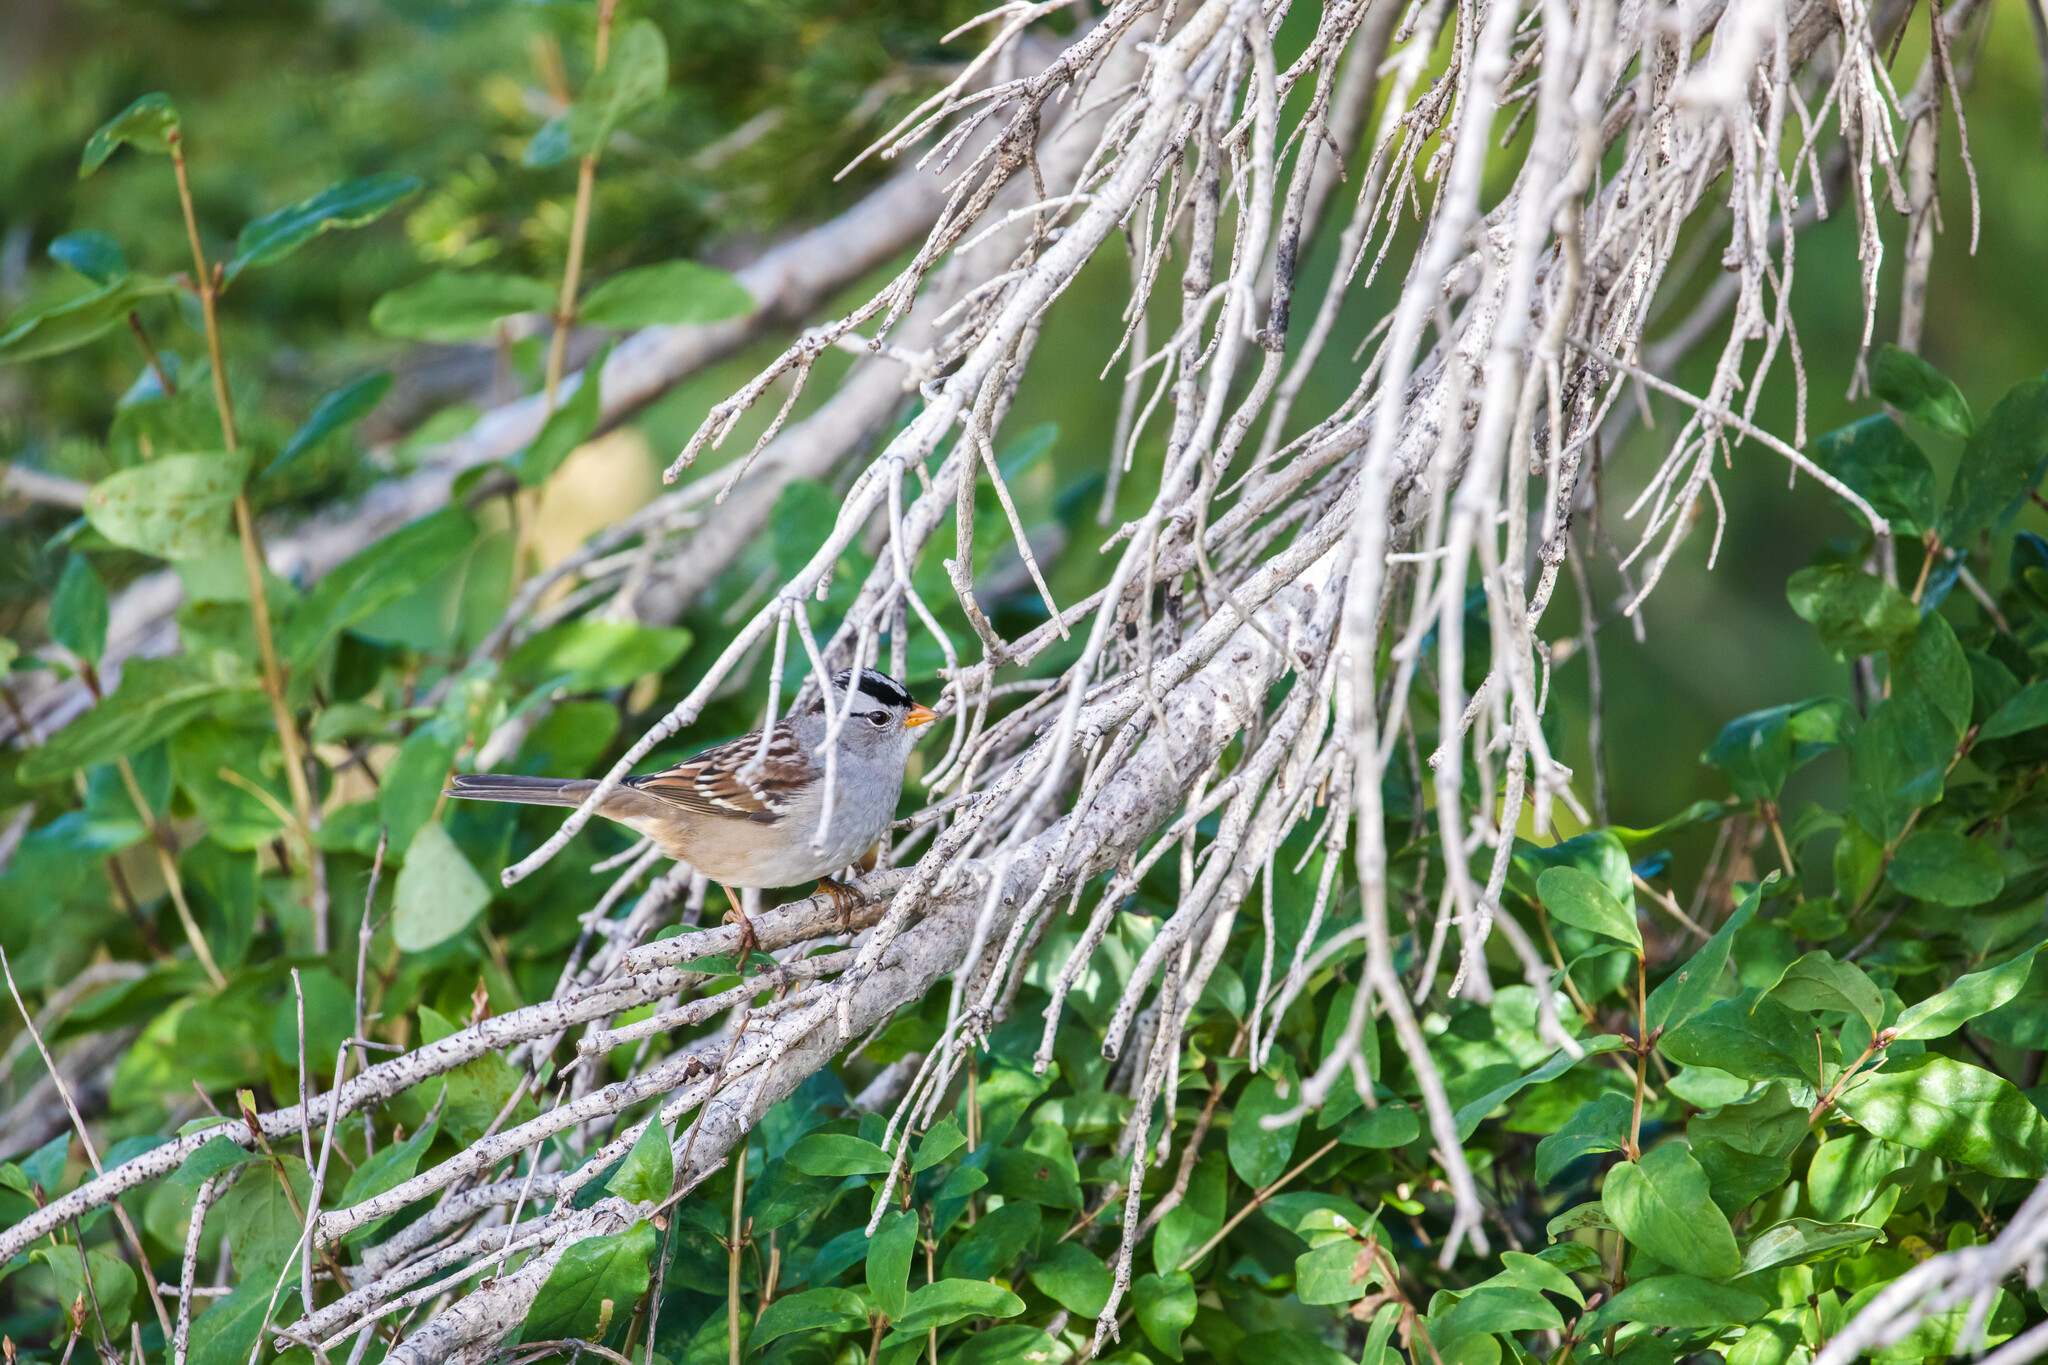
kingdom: Animalia
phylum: Chordata
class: Aves
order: Passeriformes
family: Passerellidae
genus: Zonotrichia
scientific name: Zonotrichia leucophrys
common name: White-crowned sparrow
